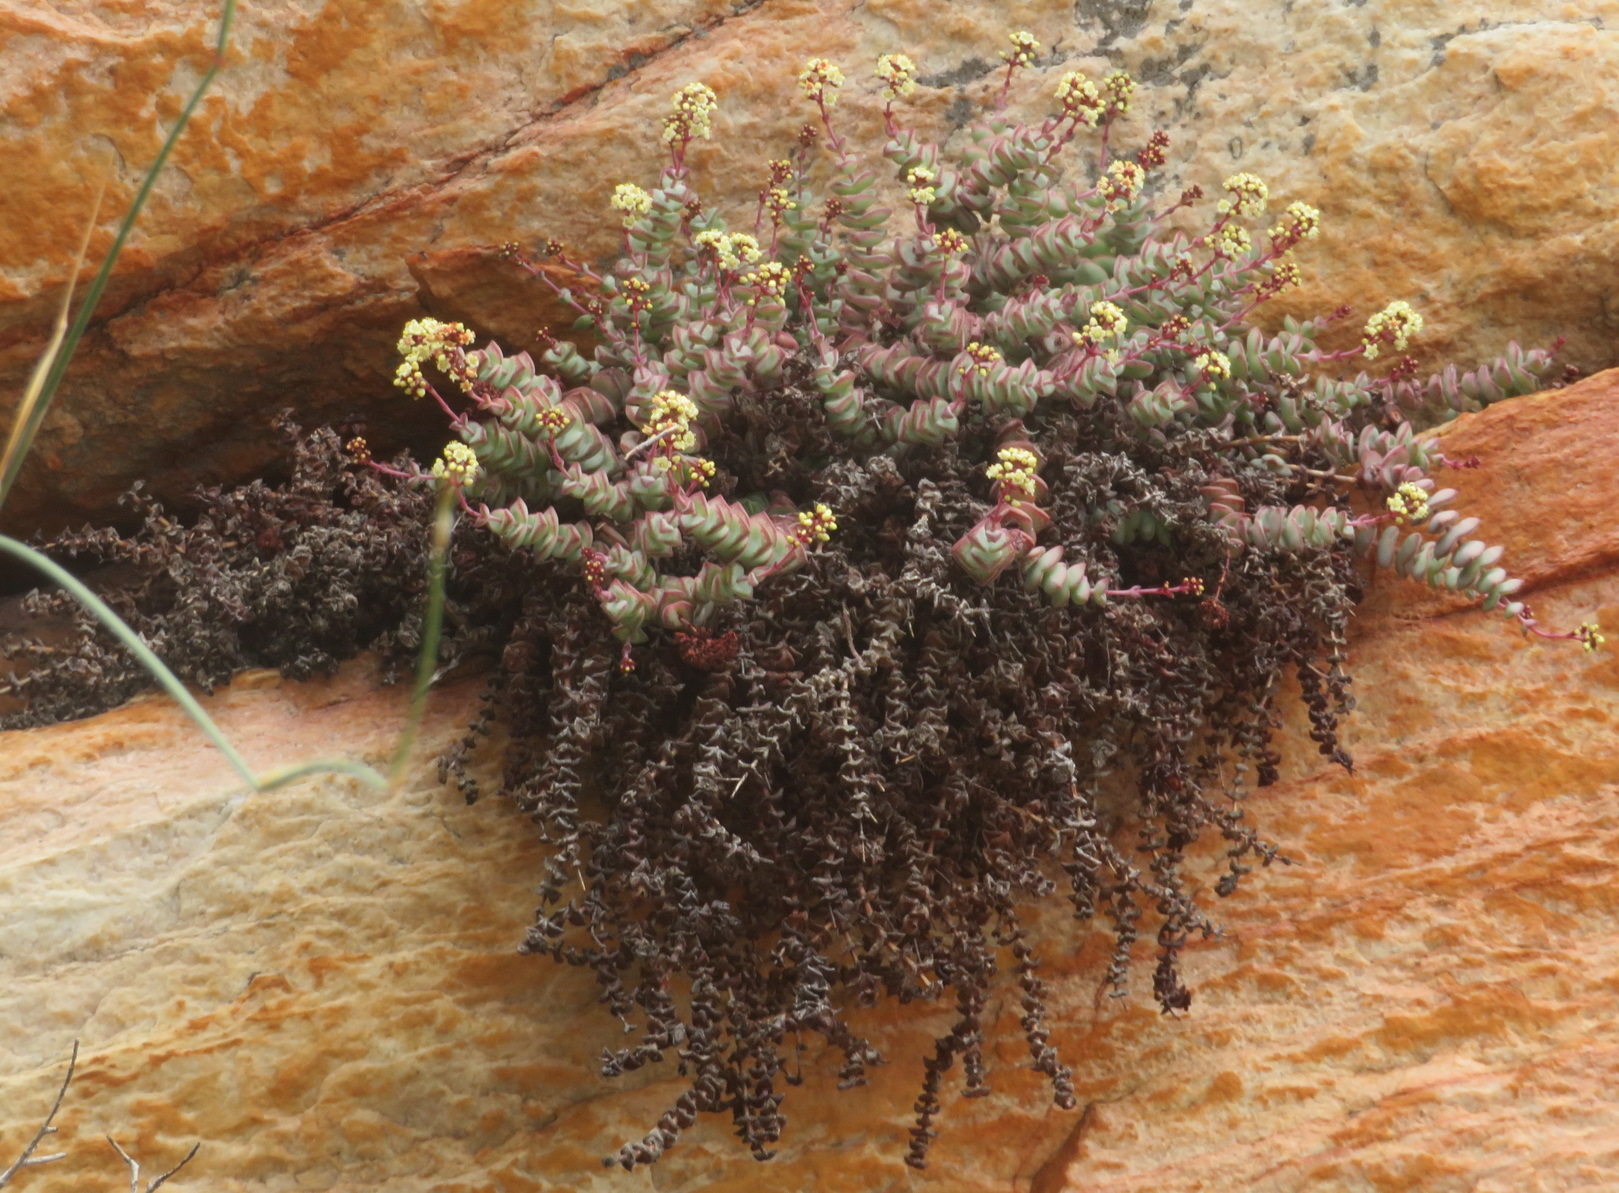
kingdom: Plantae
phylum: Tracheophyta
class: Magnoliopsida
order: Saxifragales
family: Crassulaceae
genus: Crassula
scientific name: Crassula perforata
